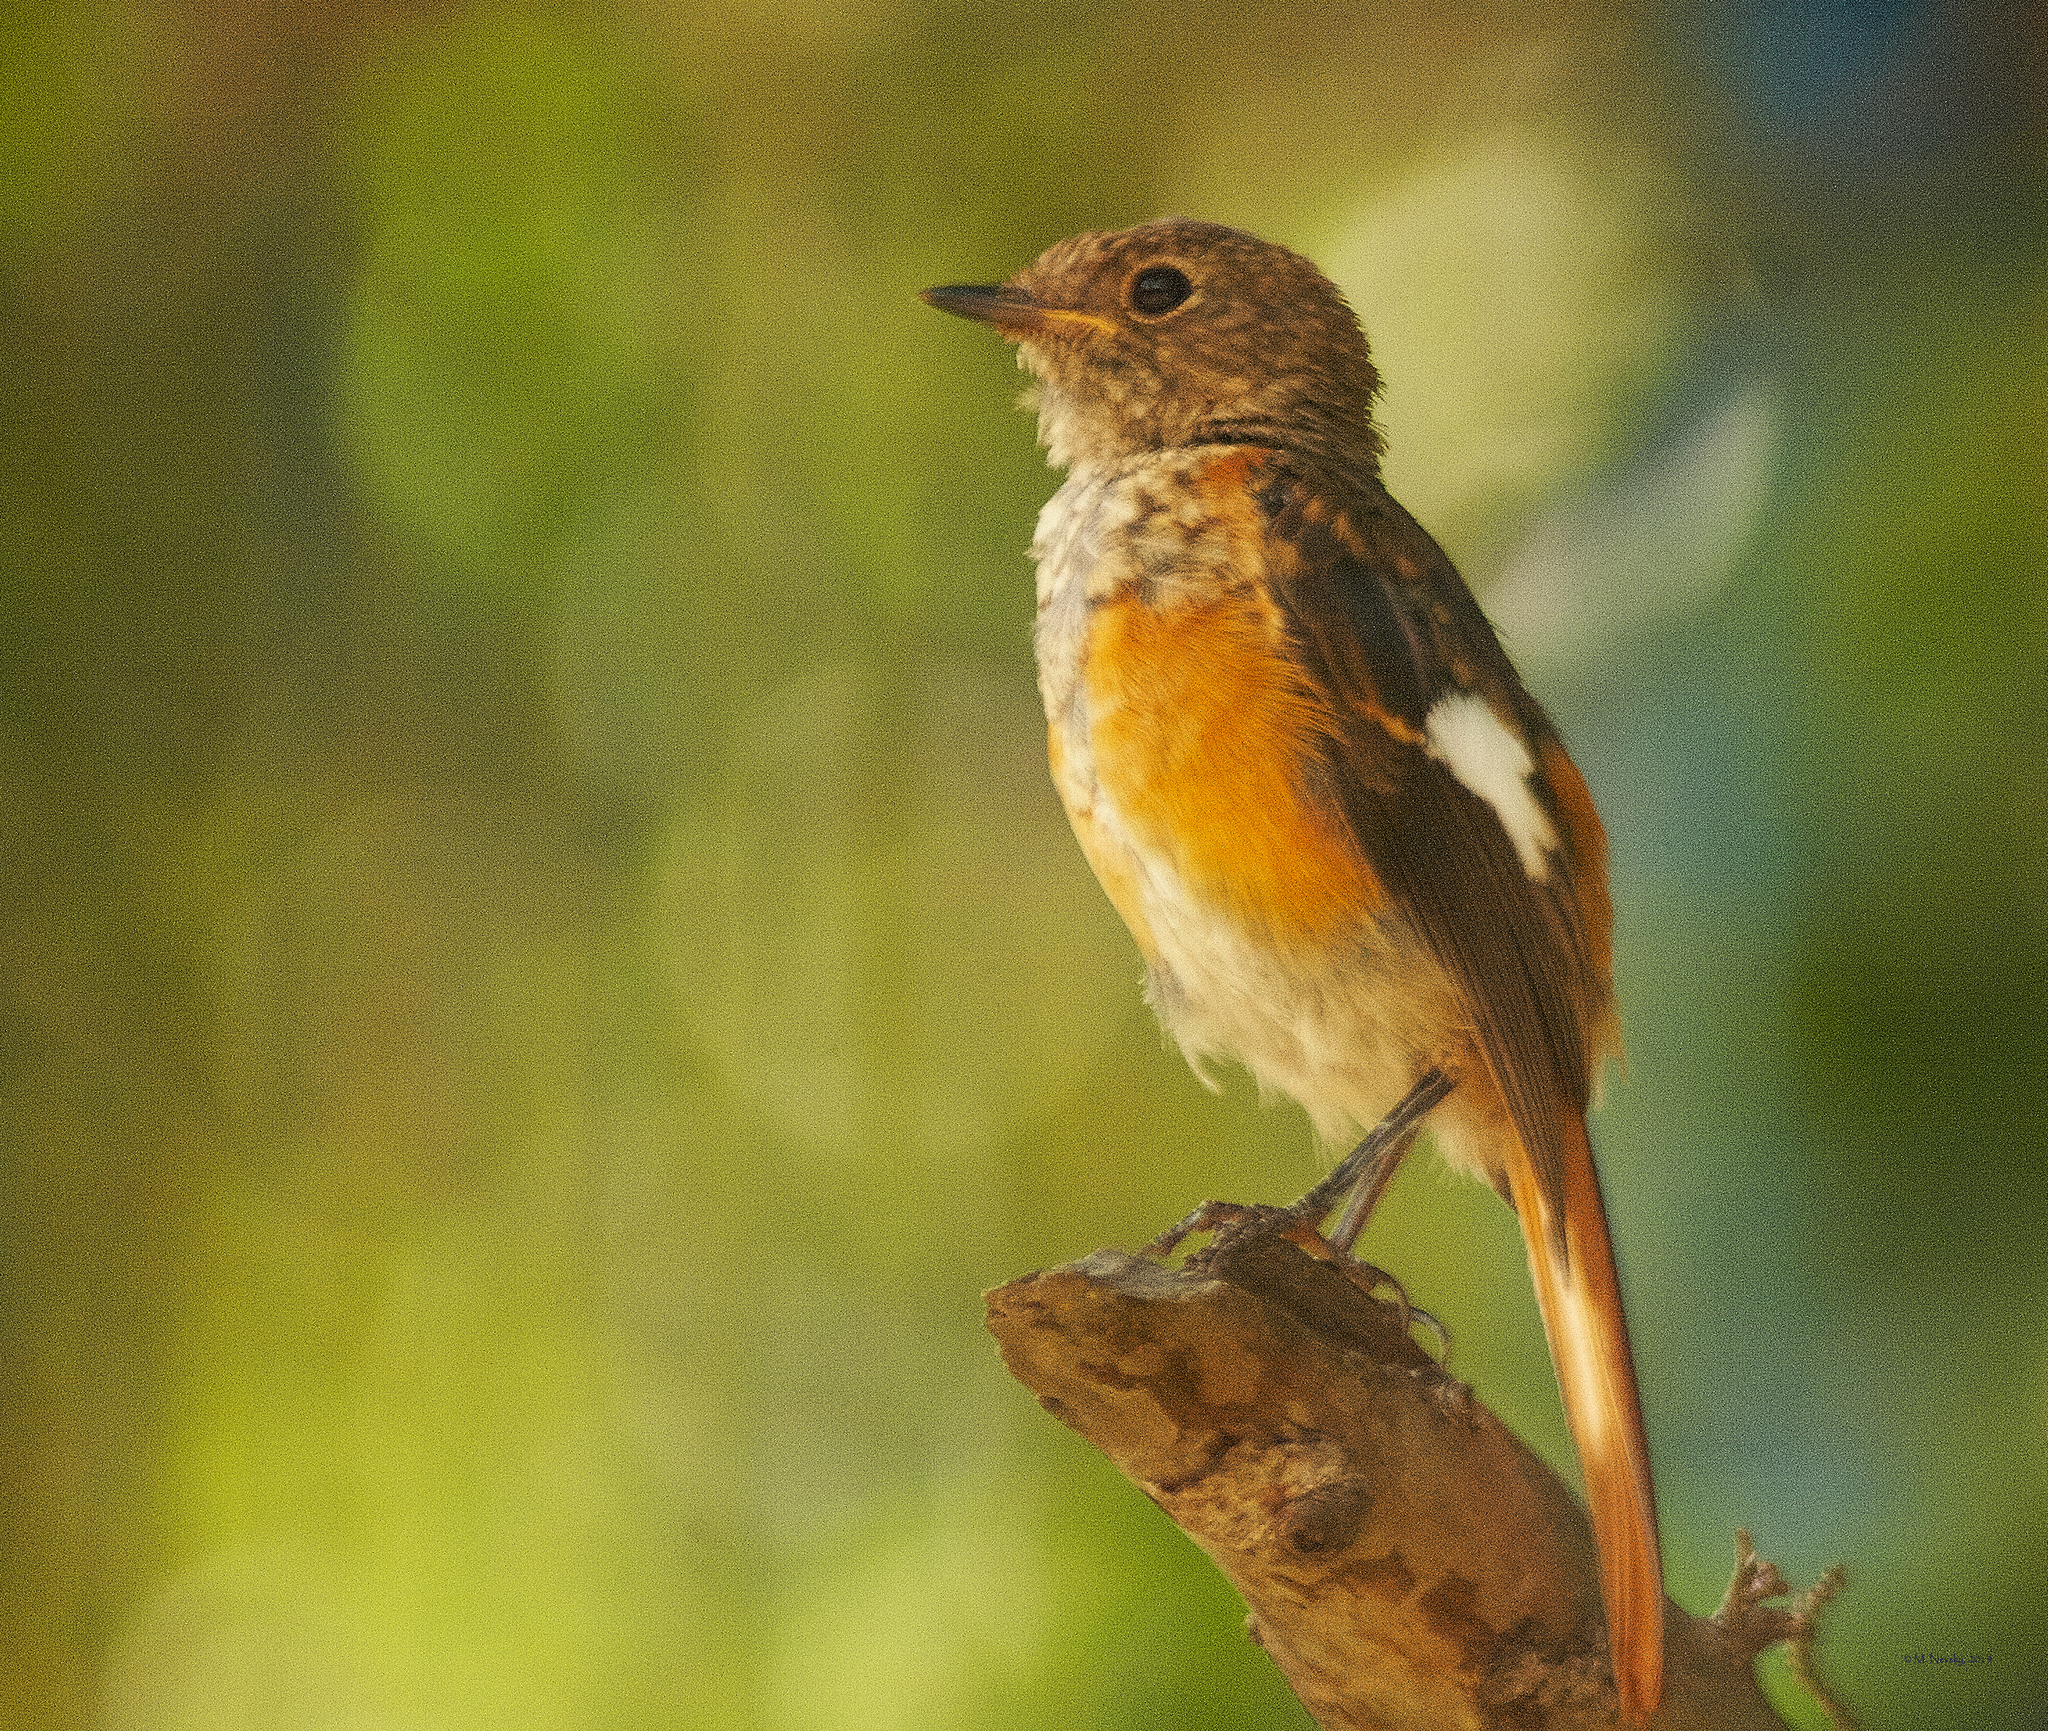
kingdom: Animalia
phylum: Chordata
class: Aves
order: Passeriformes
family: Muscicapidae
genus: Phoenicurus
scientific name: Phoenicurus auroreus
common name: Daurian redstart
